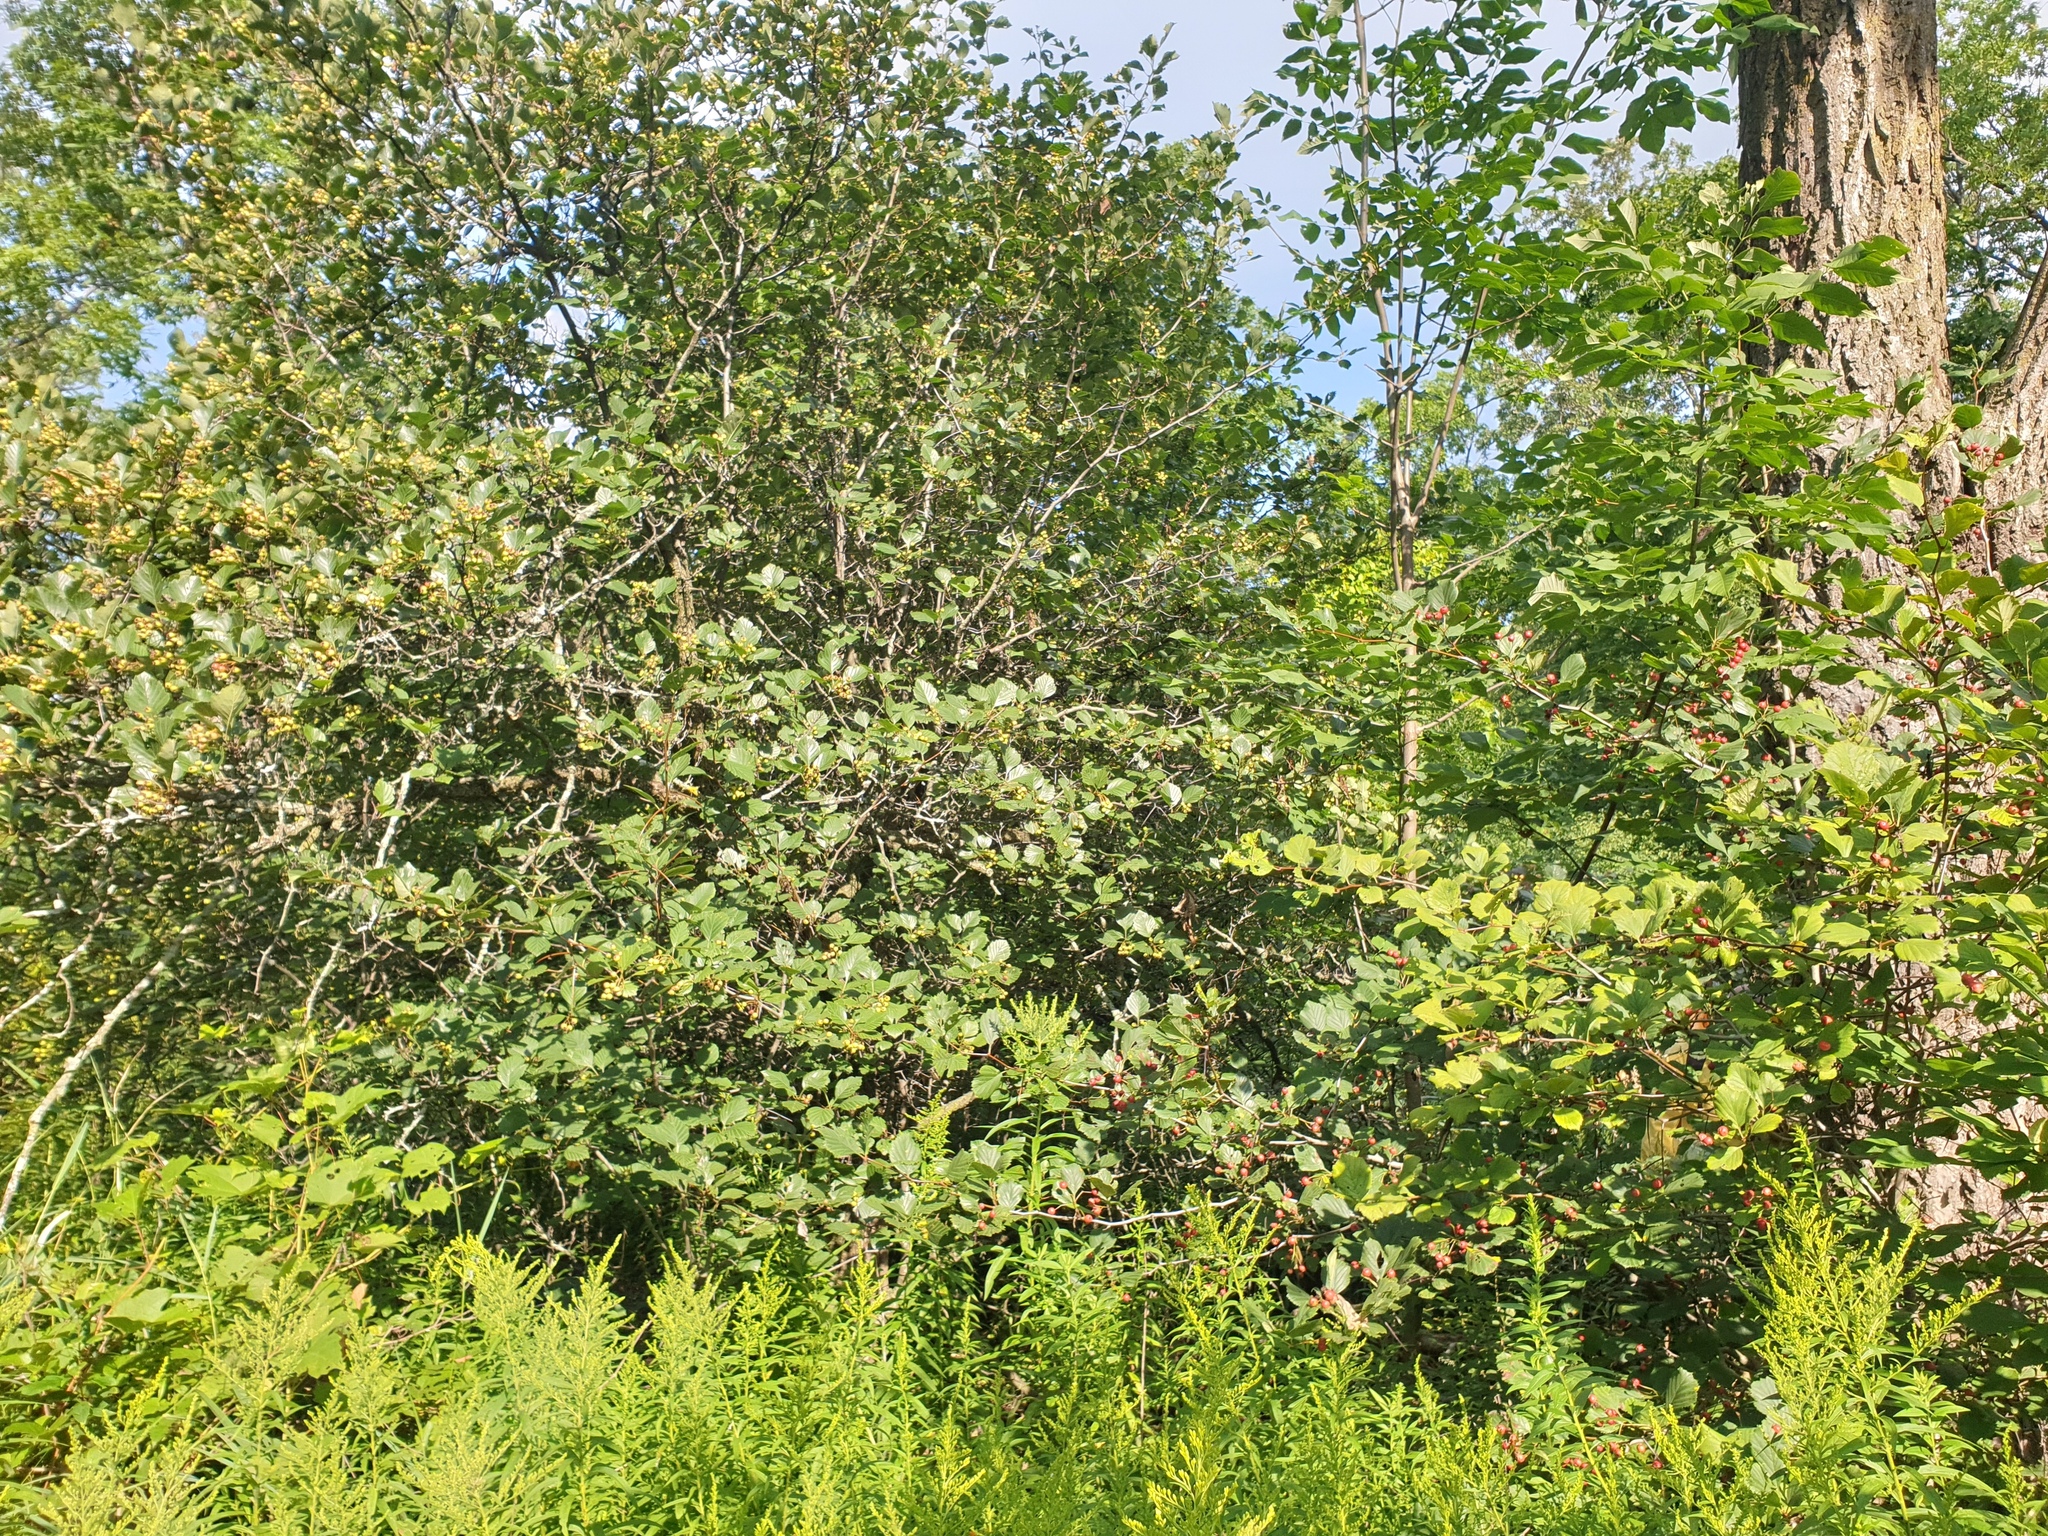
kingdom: Plantae
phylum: Tracheophyta
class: Magnoliopsida
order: Rosales
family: Rosaceae
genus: Crataegus
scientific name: Crataegus macracantha
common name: Large-thorn hawthorn
